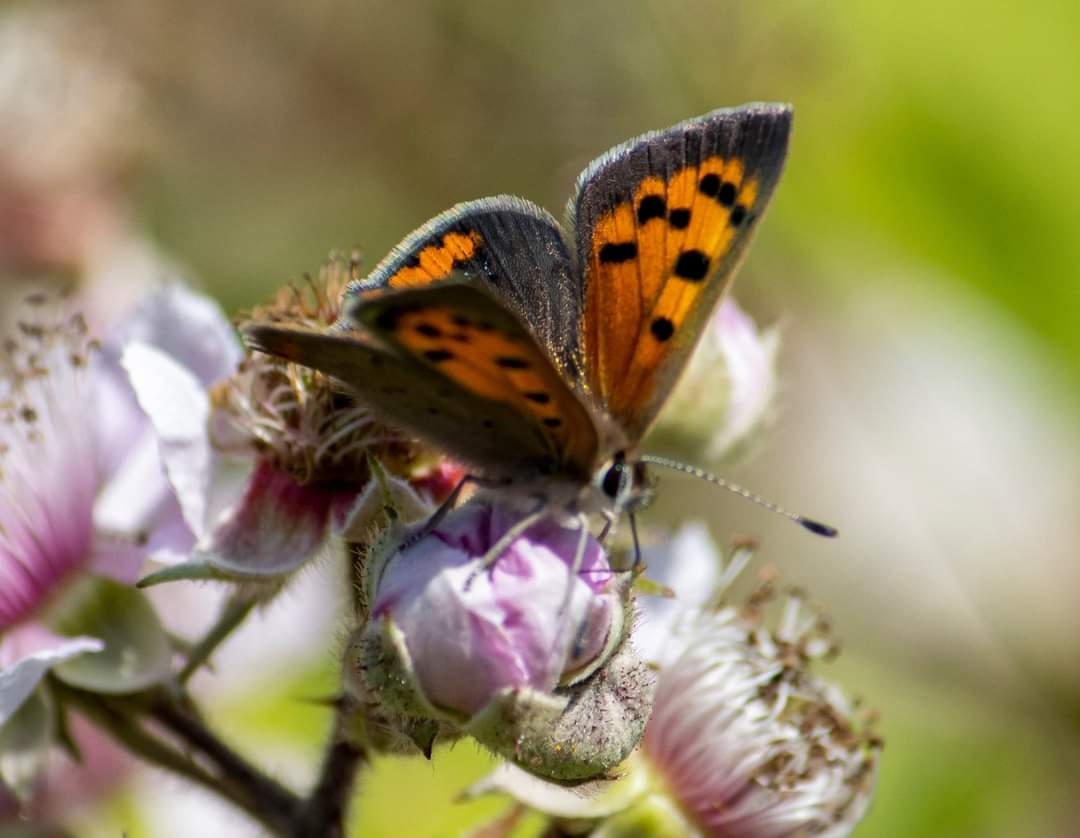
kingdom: Animalia
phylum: Arthropoda
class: Insecta
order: Lepidoptera
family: Lycaenidae
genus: Lycaena
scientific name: Lycaena phlaeas
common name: Small copper
